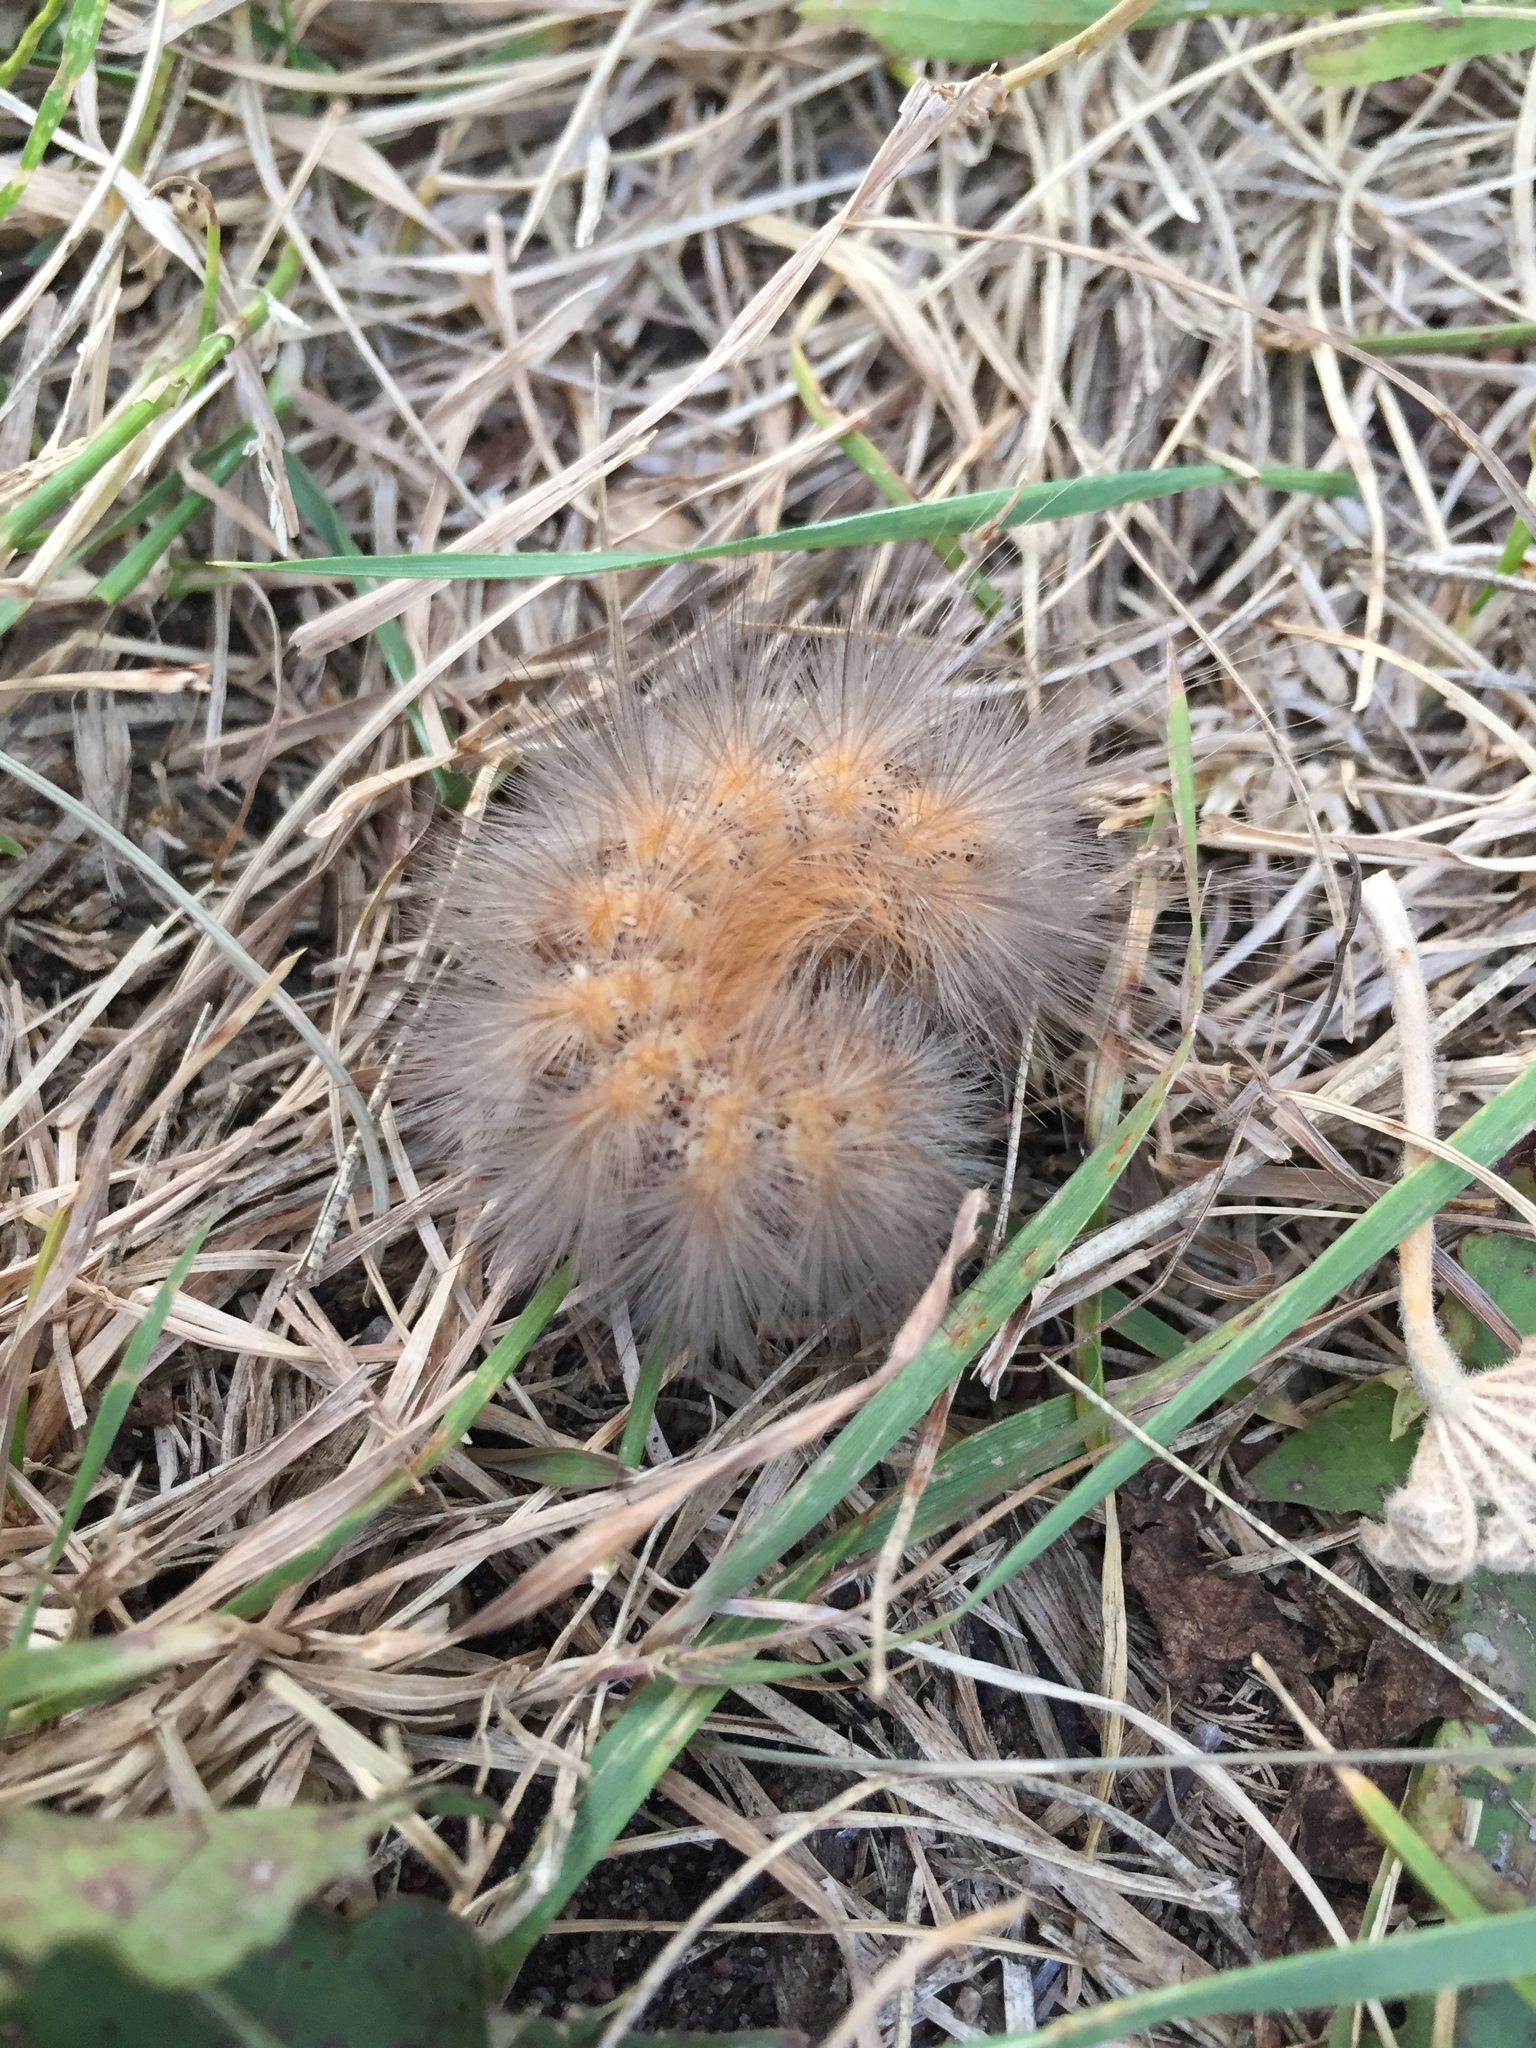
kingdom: Animalia
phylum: Arthropoda
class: Insecta
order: Lepidoptera
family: Erebidae
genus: Estigmene
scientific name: Estigmene acrea
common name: Salt marsh moth
